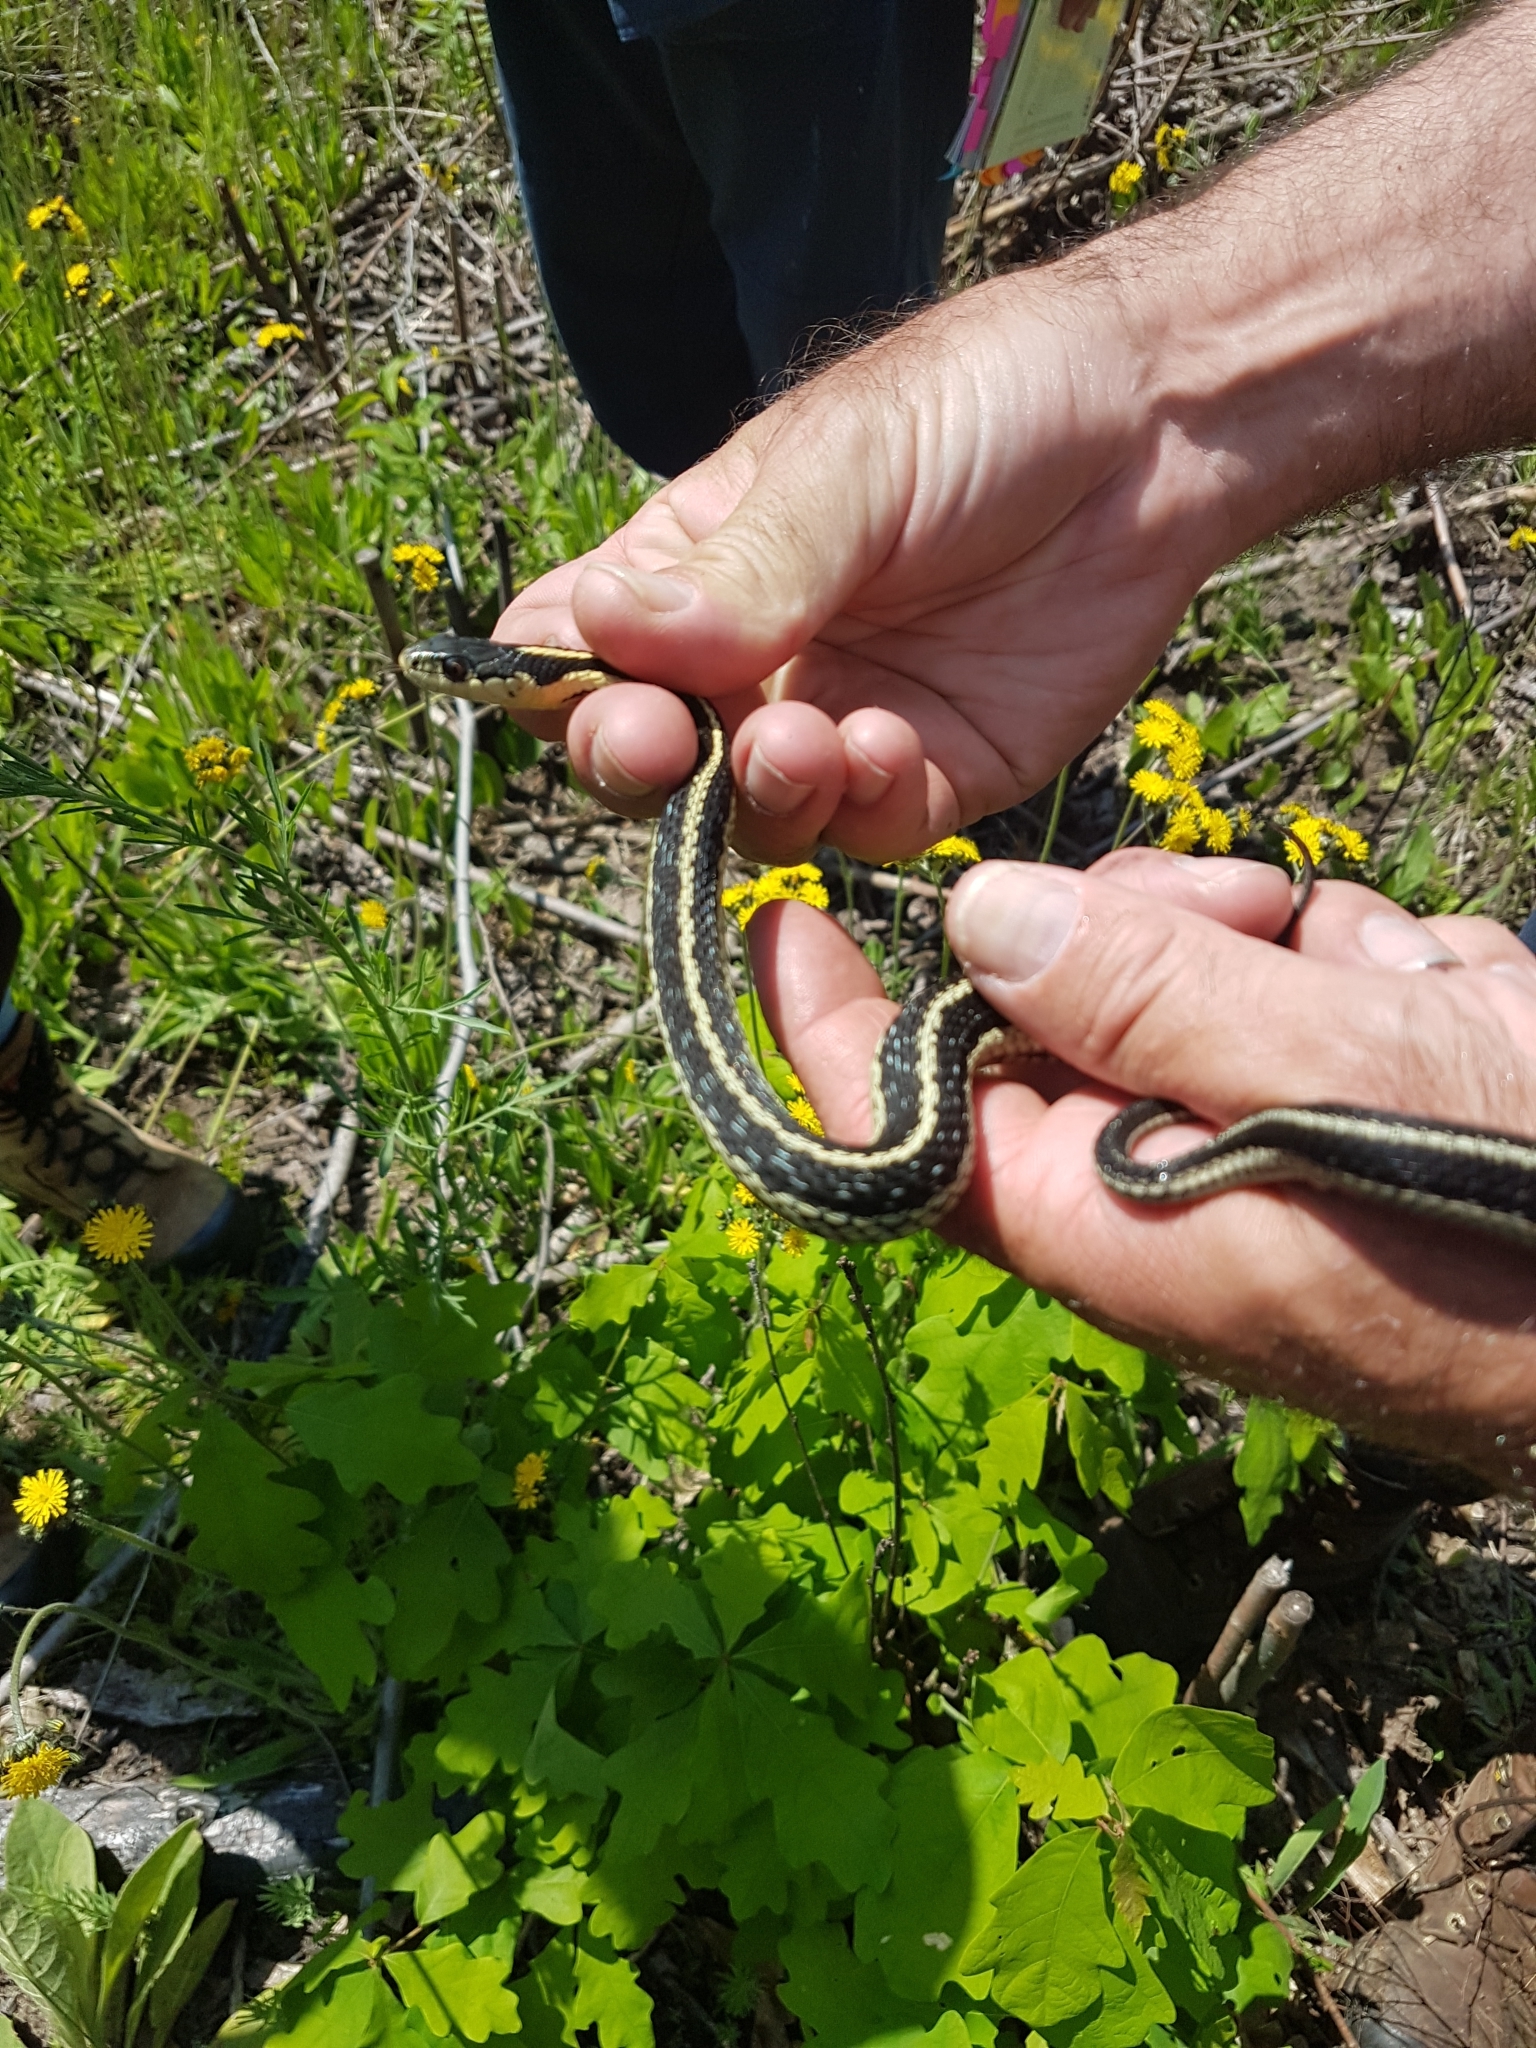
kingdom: Animalia
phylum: Chordata
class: Squamata
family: Colubridae
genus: Thamnophis
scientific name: Thamnophis sirtalis
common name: Common garter snake
